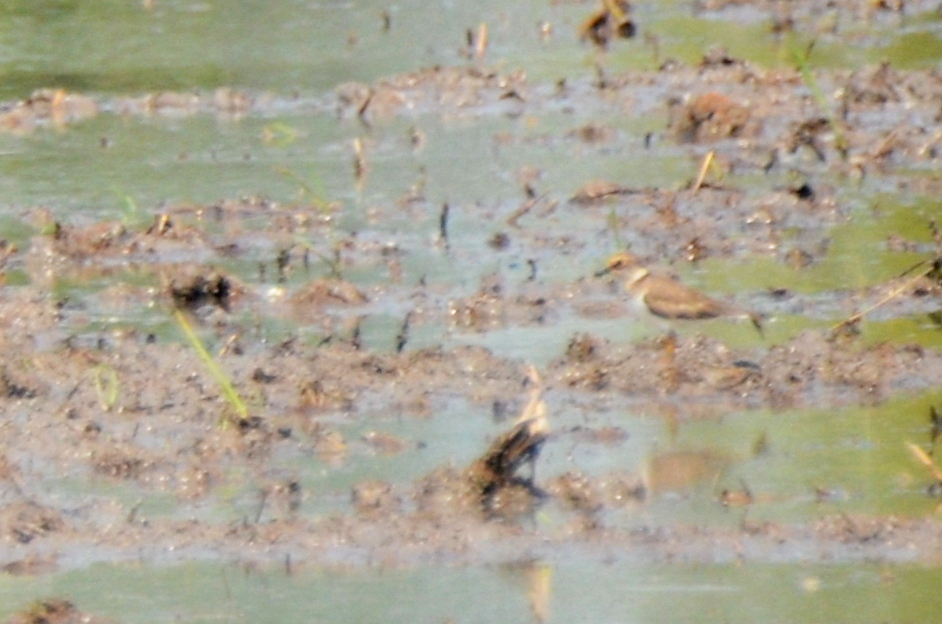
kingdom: Animalia
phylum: Chordata
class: Aves
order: Charadriiformes
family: Charadriidae
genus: Charadrius
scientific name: Charadrius dubius
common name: Little ringed plover
